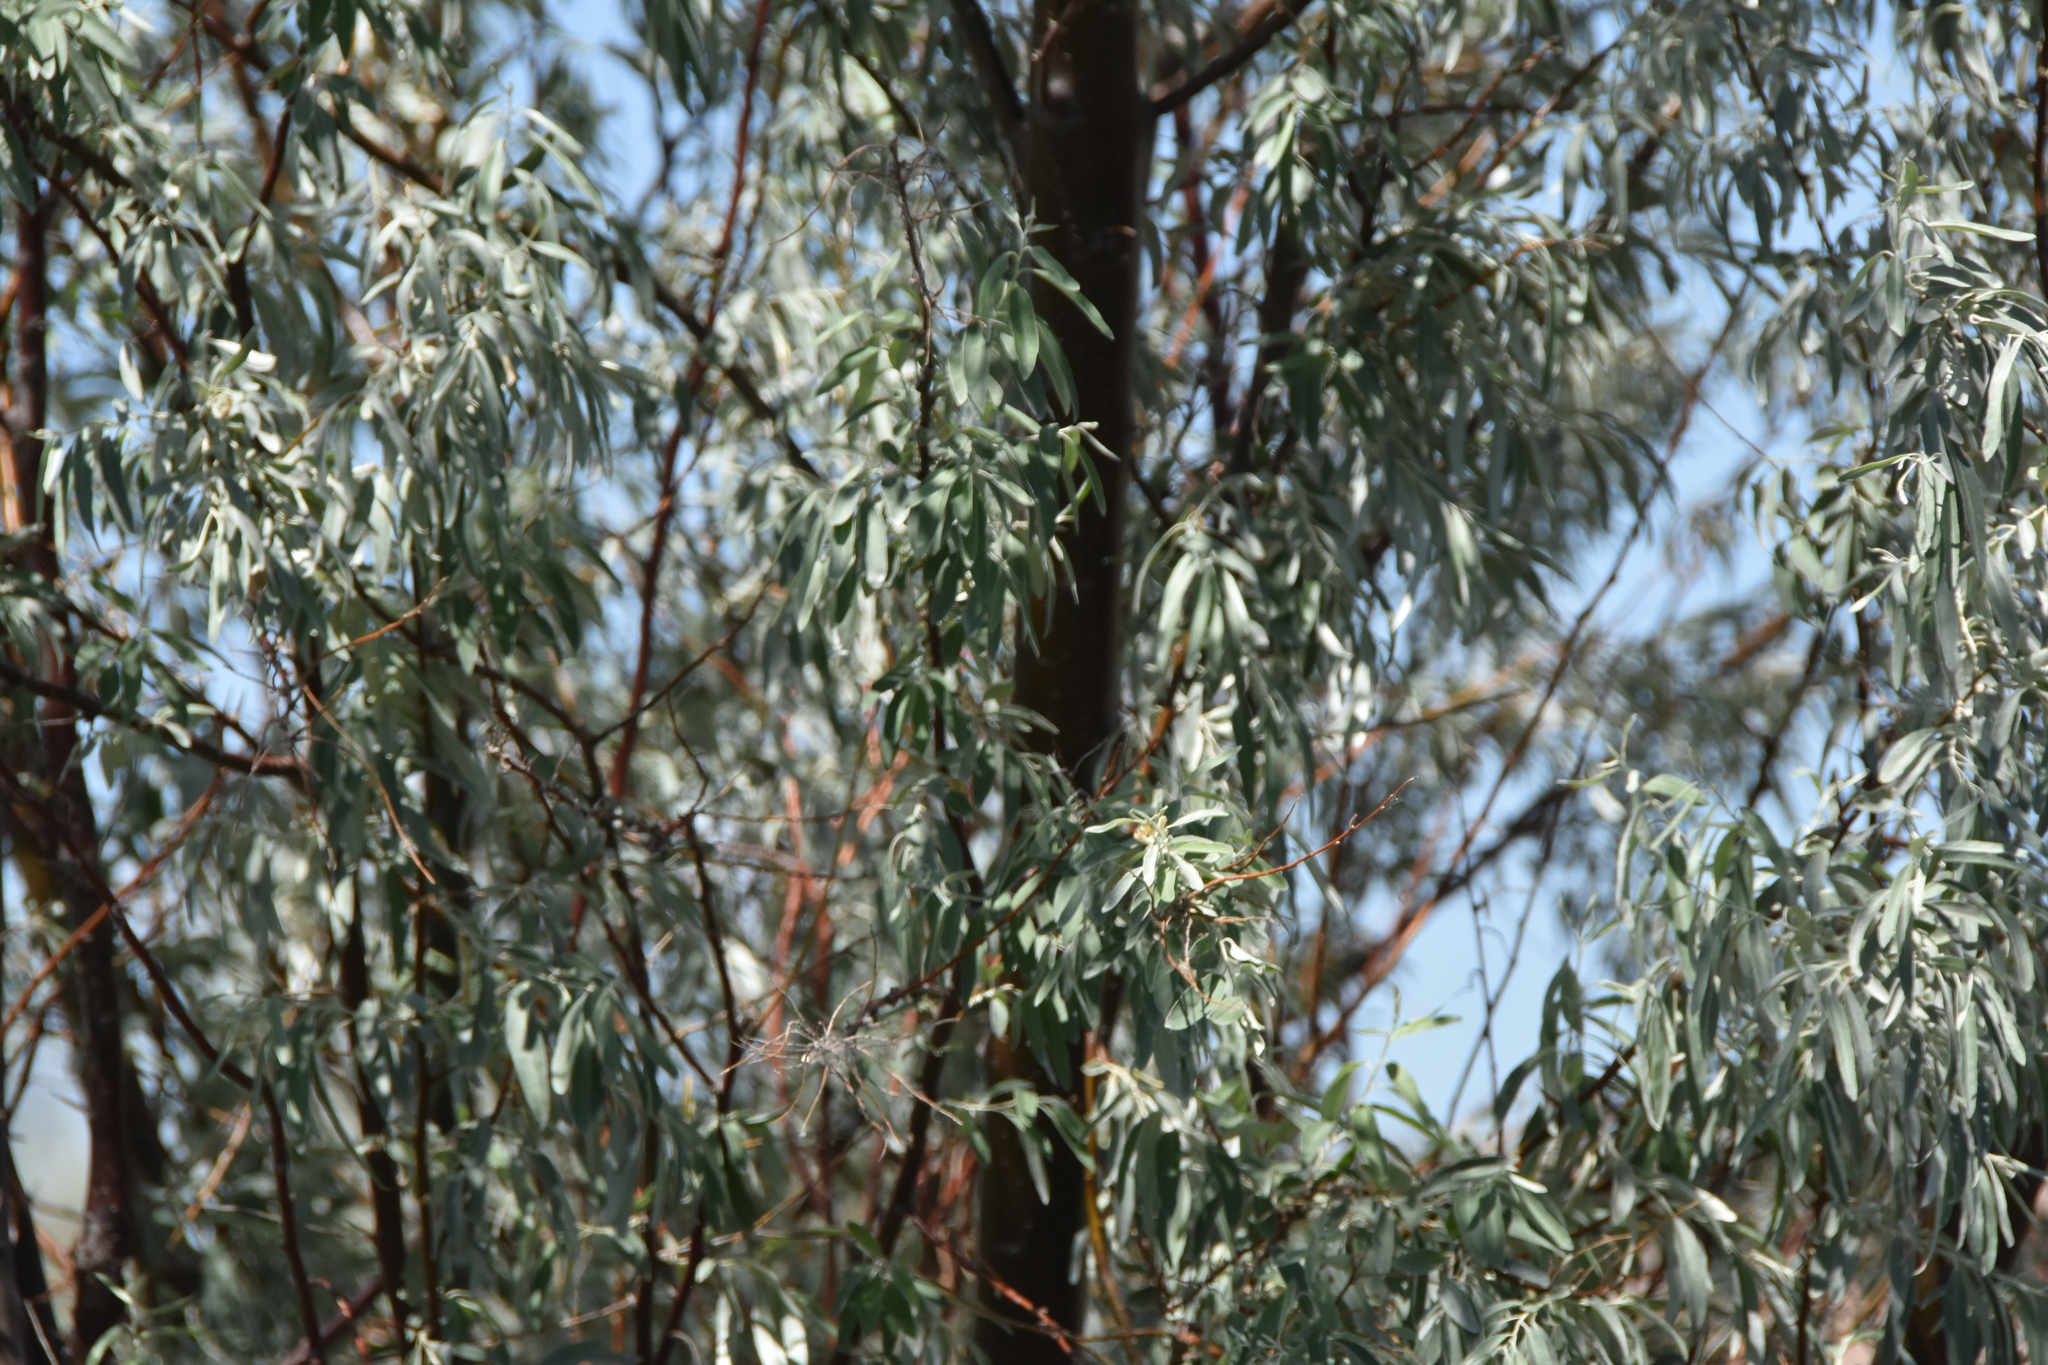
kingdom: Plantae
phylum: Tracheophyta
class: Magnoliopsida
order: Rosales
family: Elaeagnaceae
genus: Elaeagnus
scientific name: Elaeagnus angustifolia
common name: Russian olive
